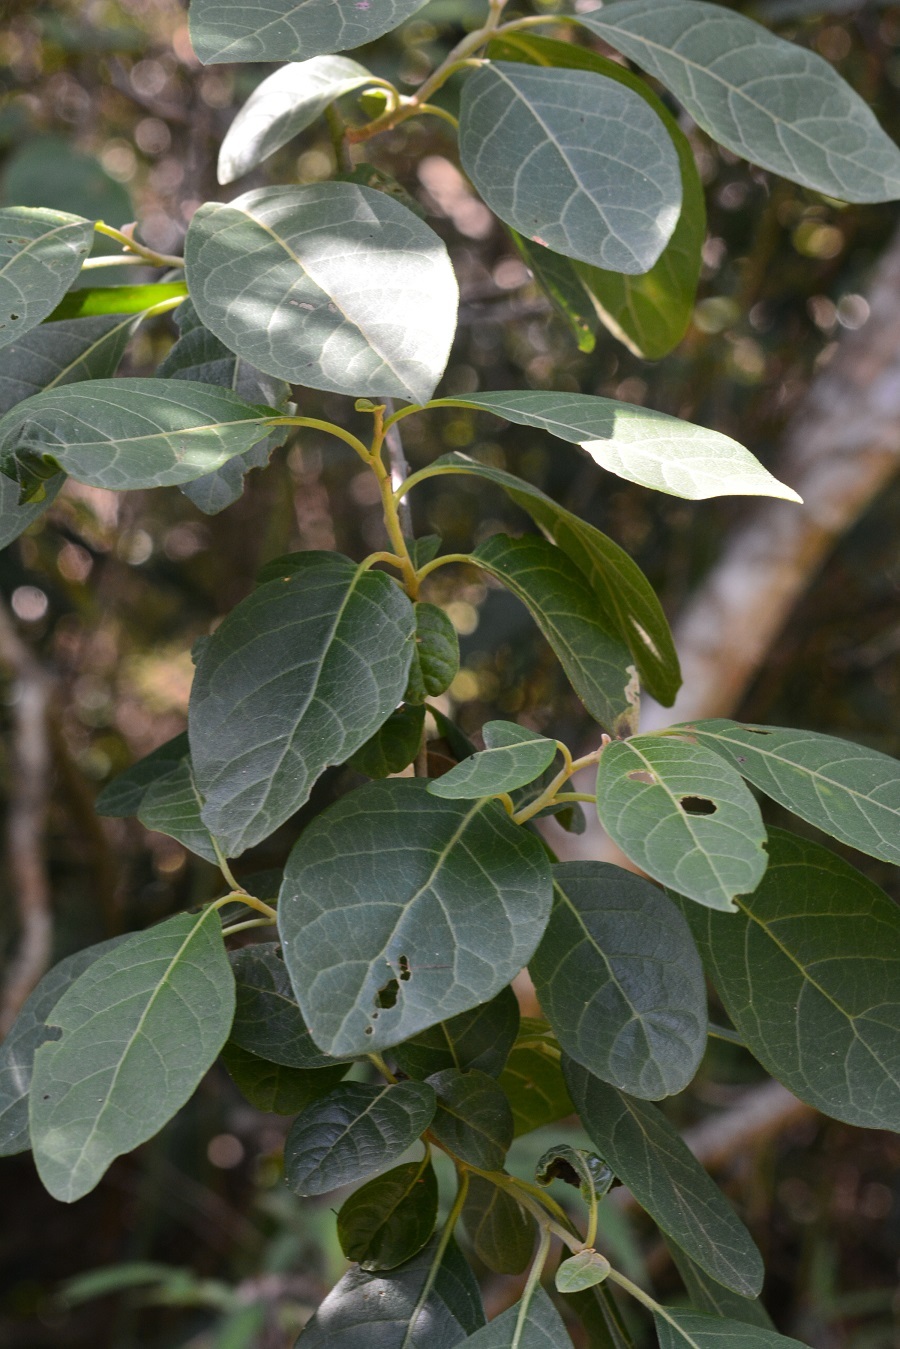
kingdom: Plantae
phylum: Tracheophyta
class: Magnoliopsida
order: Boraginales
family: Ehretiaceae
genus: Bourreria
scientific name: Bourreria huanita
